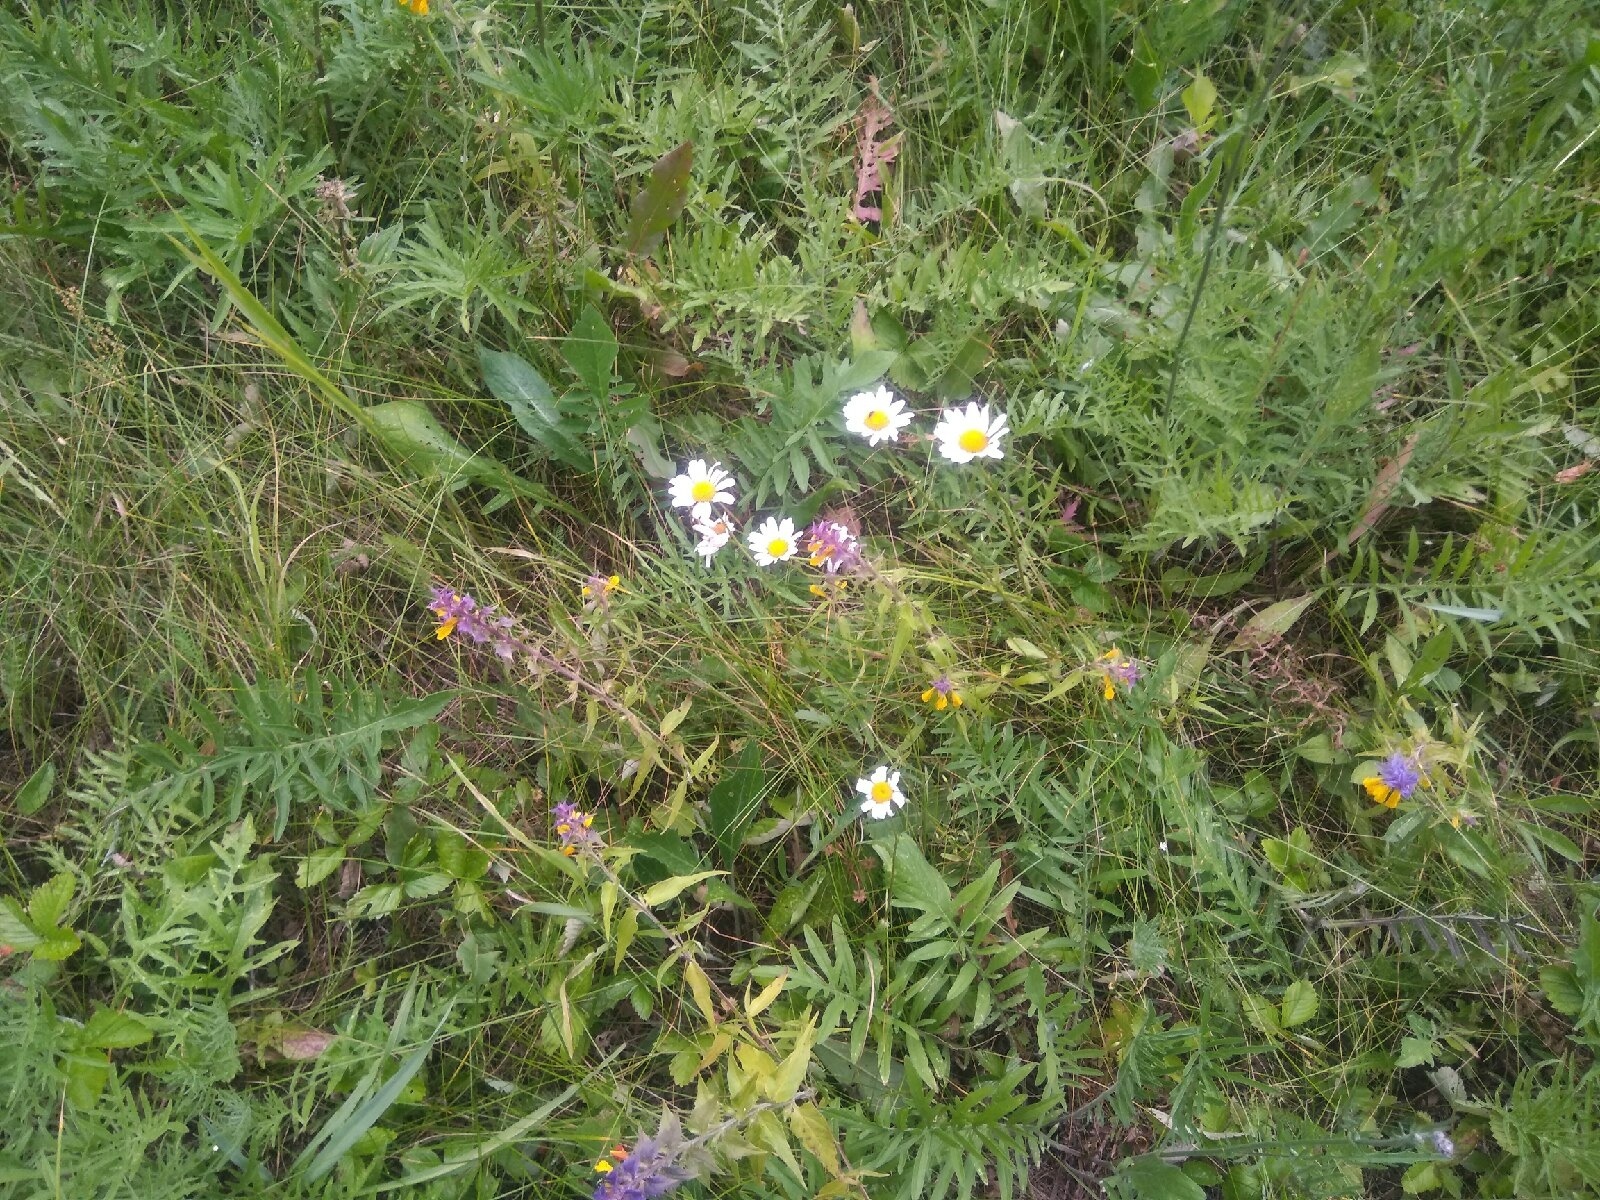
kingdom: Plantae
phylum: Tracheophyta
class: Magnoliopsida
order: Asterales
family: Asteraceae
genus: Leucanthemum
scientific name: Leucanthemum vulgare
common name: Oxeye daisy
